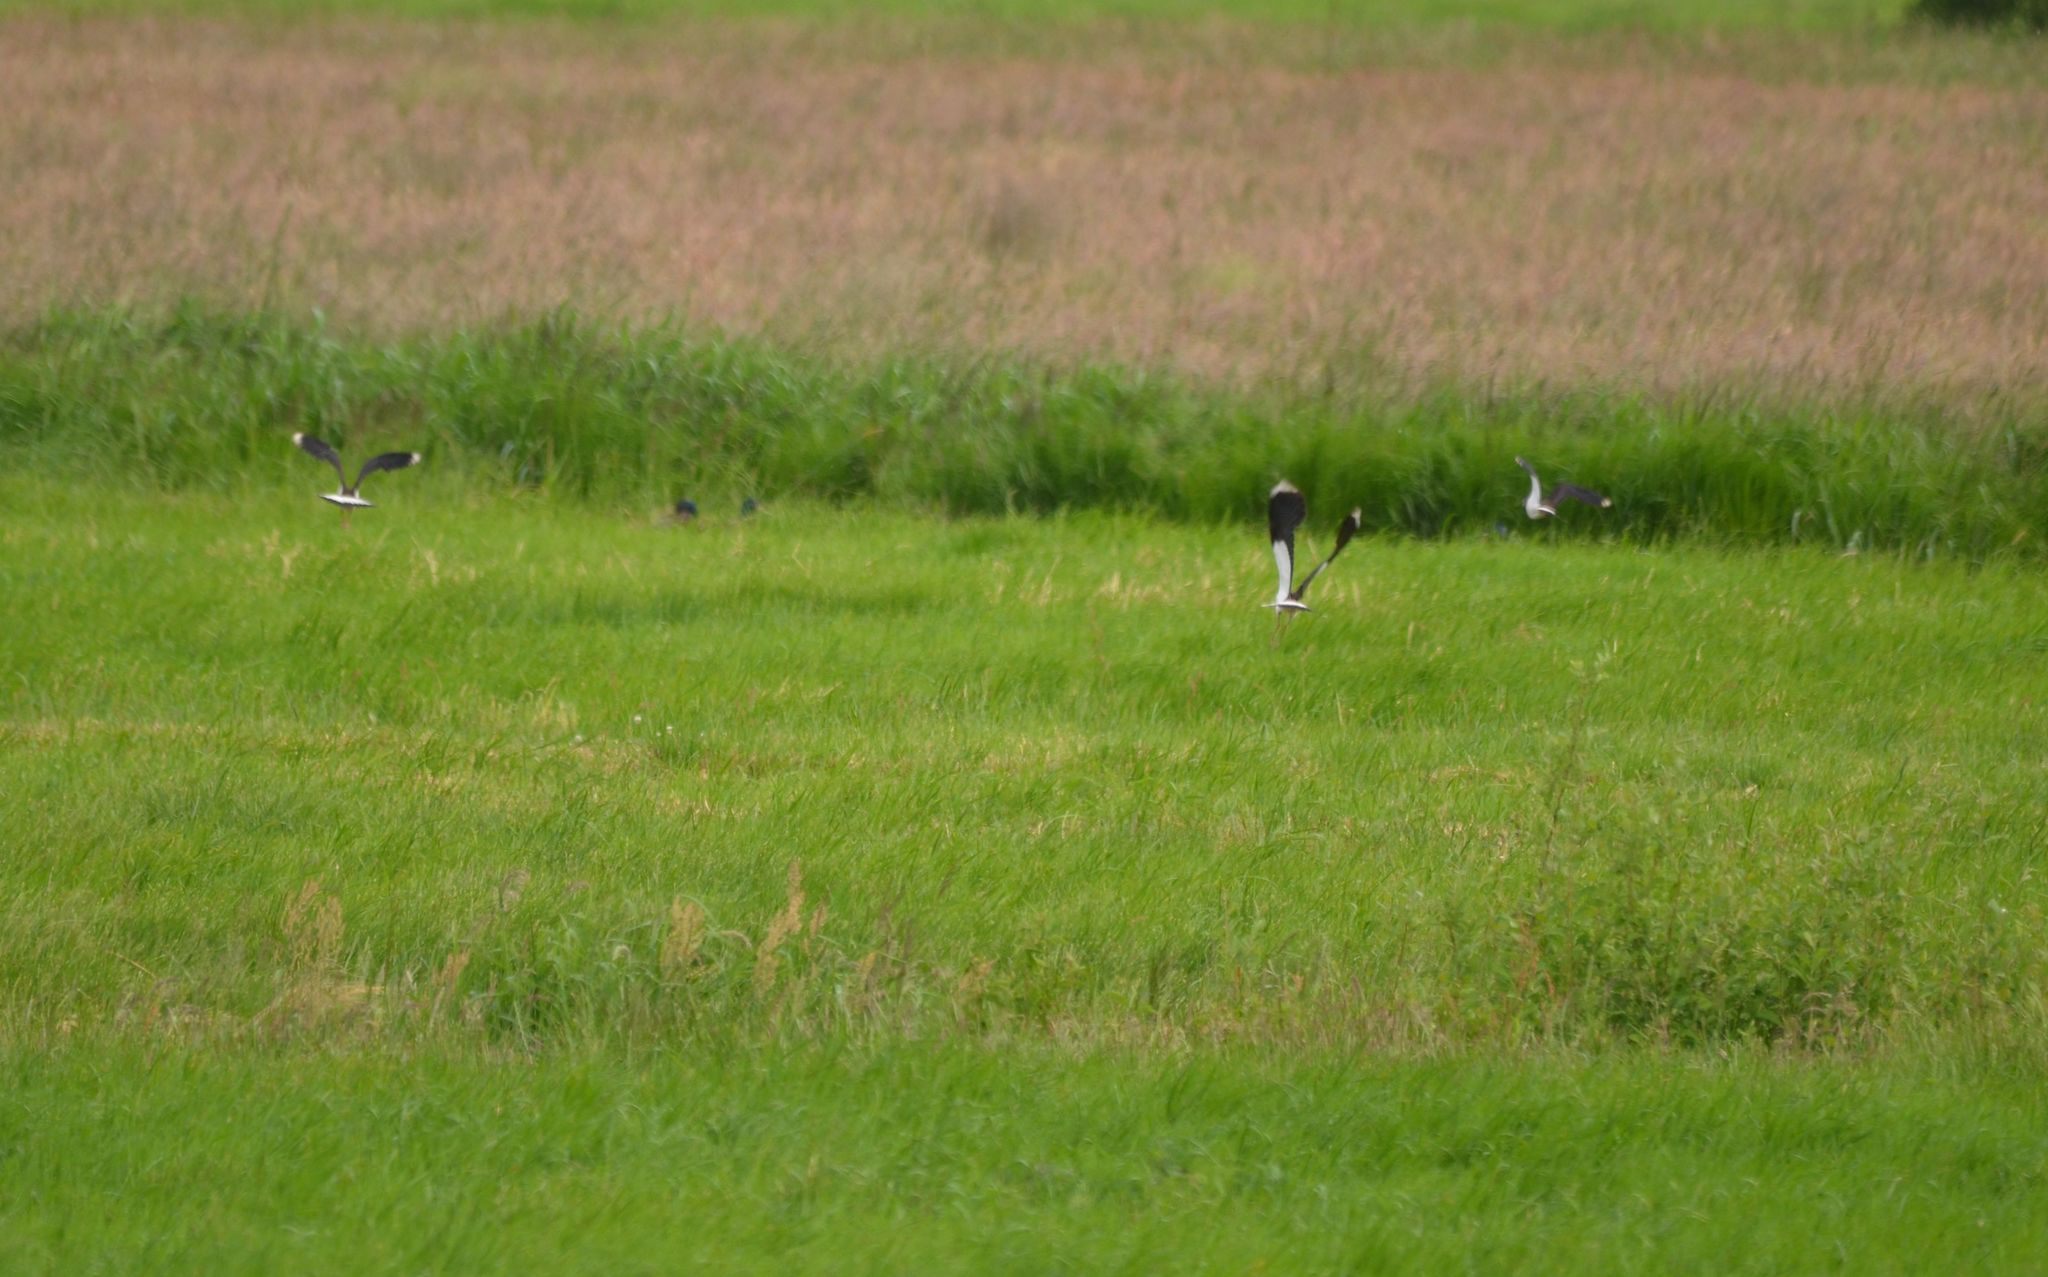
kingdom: Animalia
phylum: Chordata
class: Aves
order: Charadriiformes
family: Charadriidae
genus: Vanellus
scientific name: Vanellus vanellus
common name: Northern lapwing
